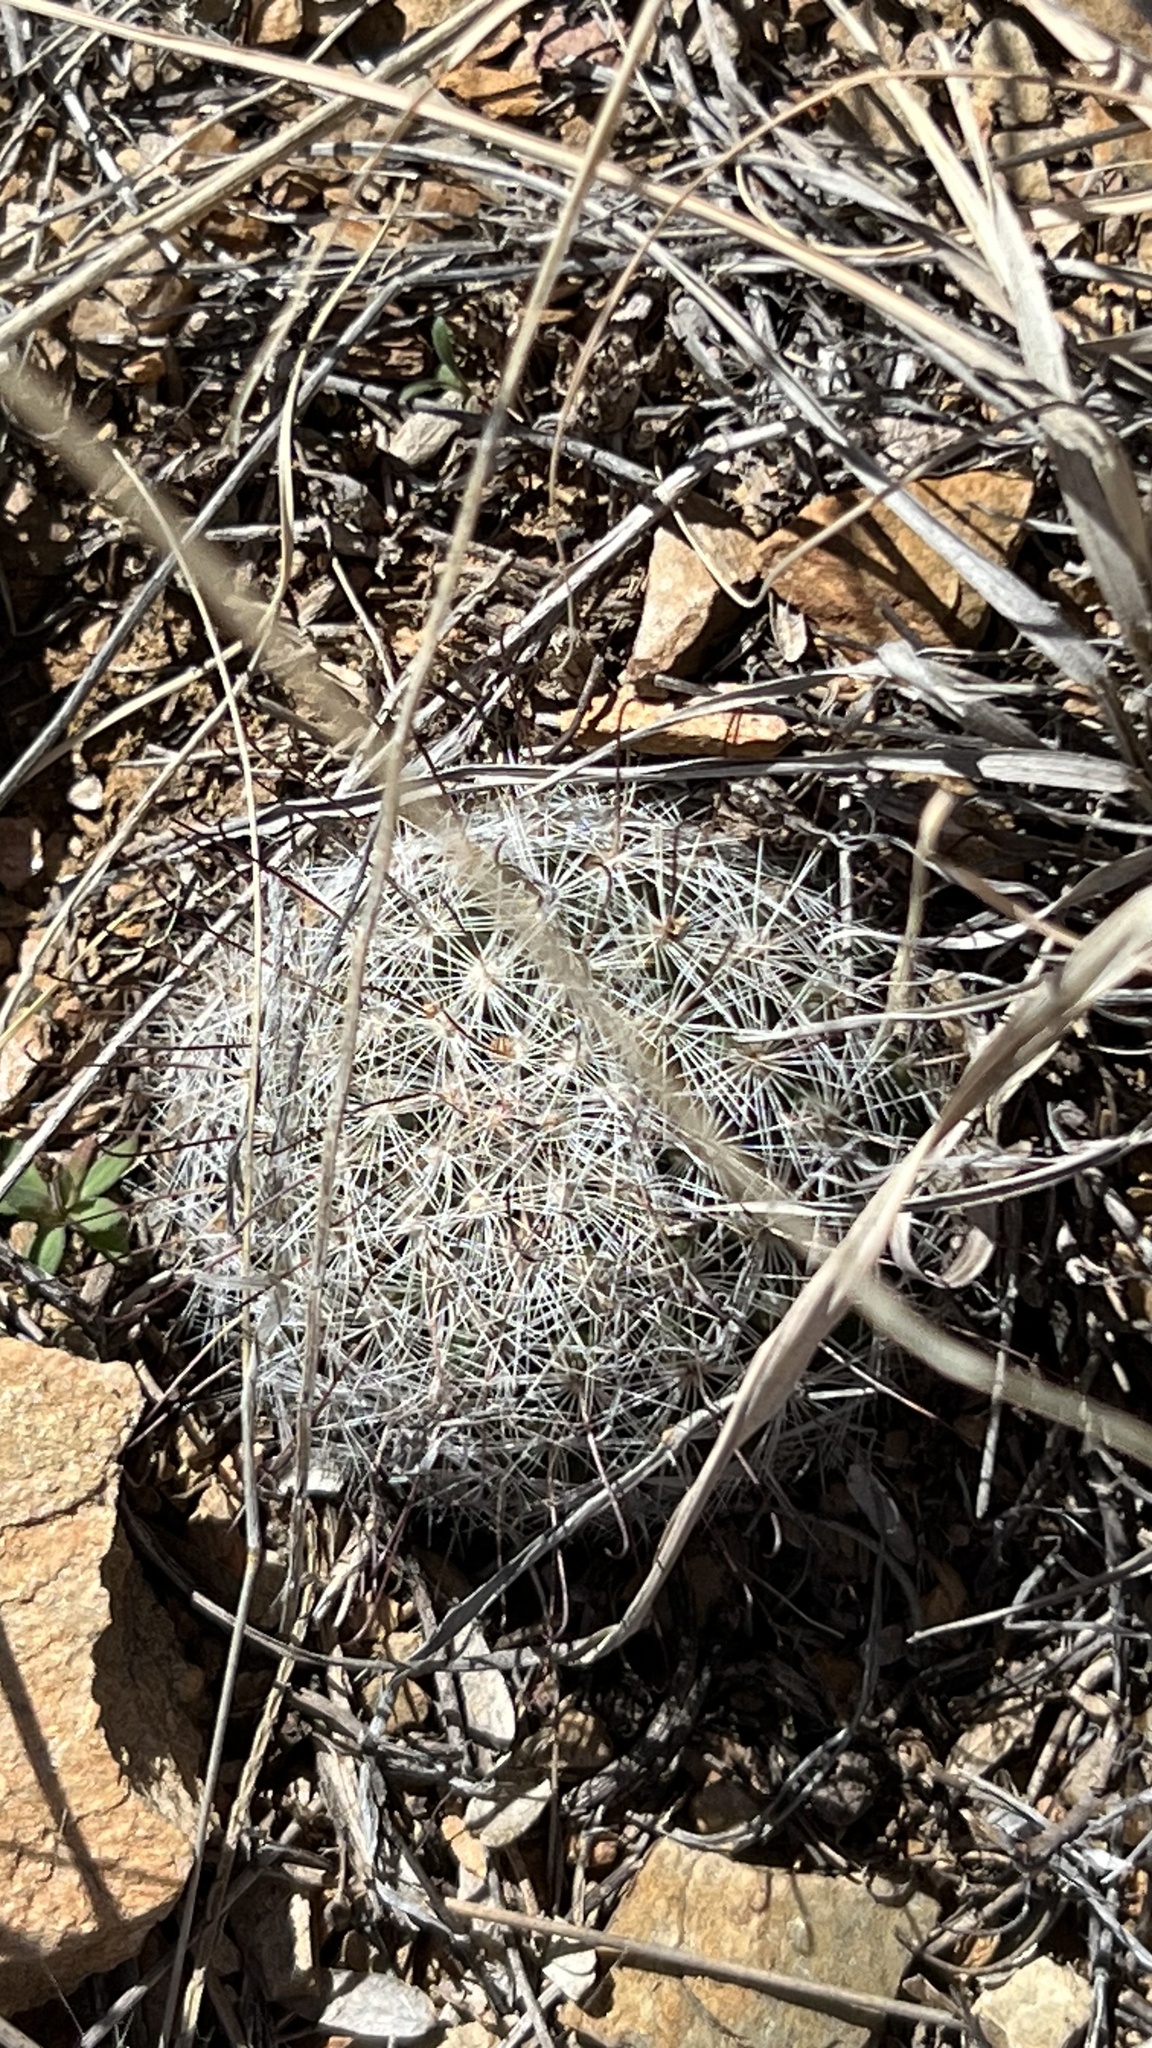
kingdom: Plantae
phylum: Tracheophyta
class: Magnoliopsida
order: Caryophyllales
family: Cactaceae
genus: Cochemiea
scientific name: Cochemiea grahamii
